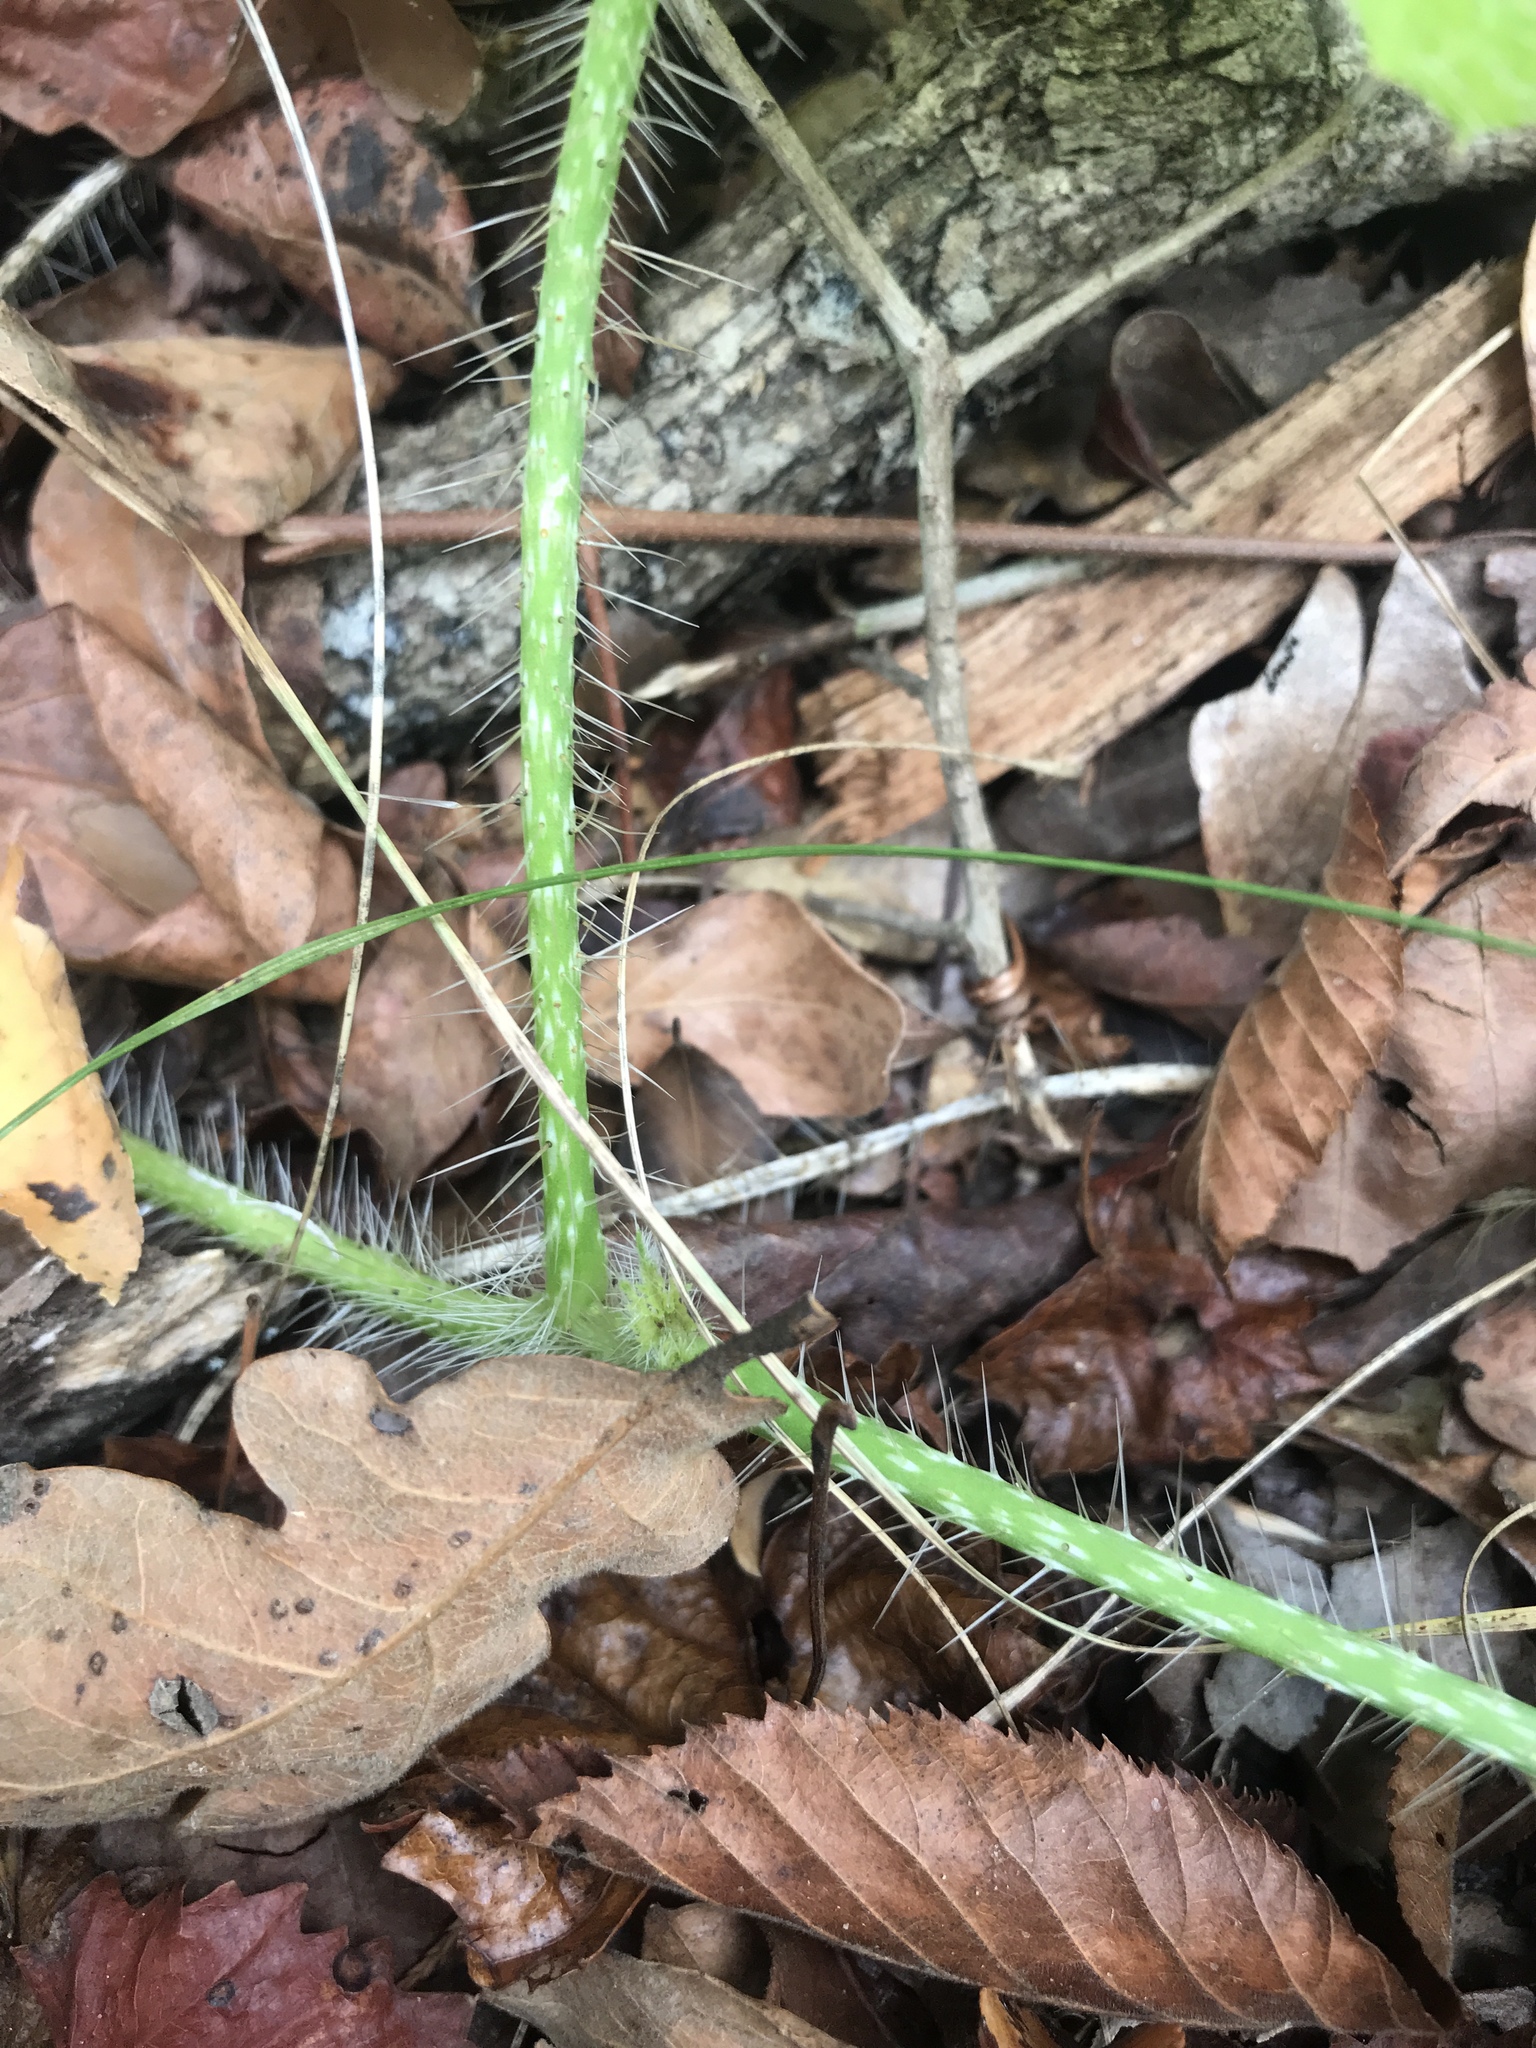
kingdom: Plantae
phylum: Tracheophyta
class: Magnoliopsida
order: Malpighiales
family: Euphorbiaceae
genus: Cnidoscolus
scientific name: Cnidoscolus texanus
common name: Texas bull-nettle
